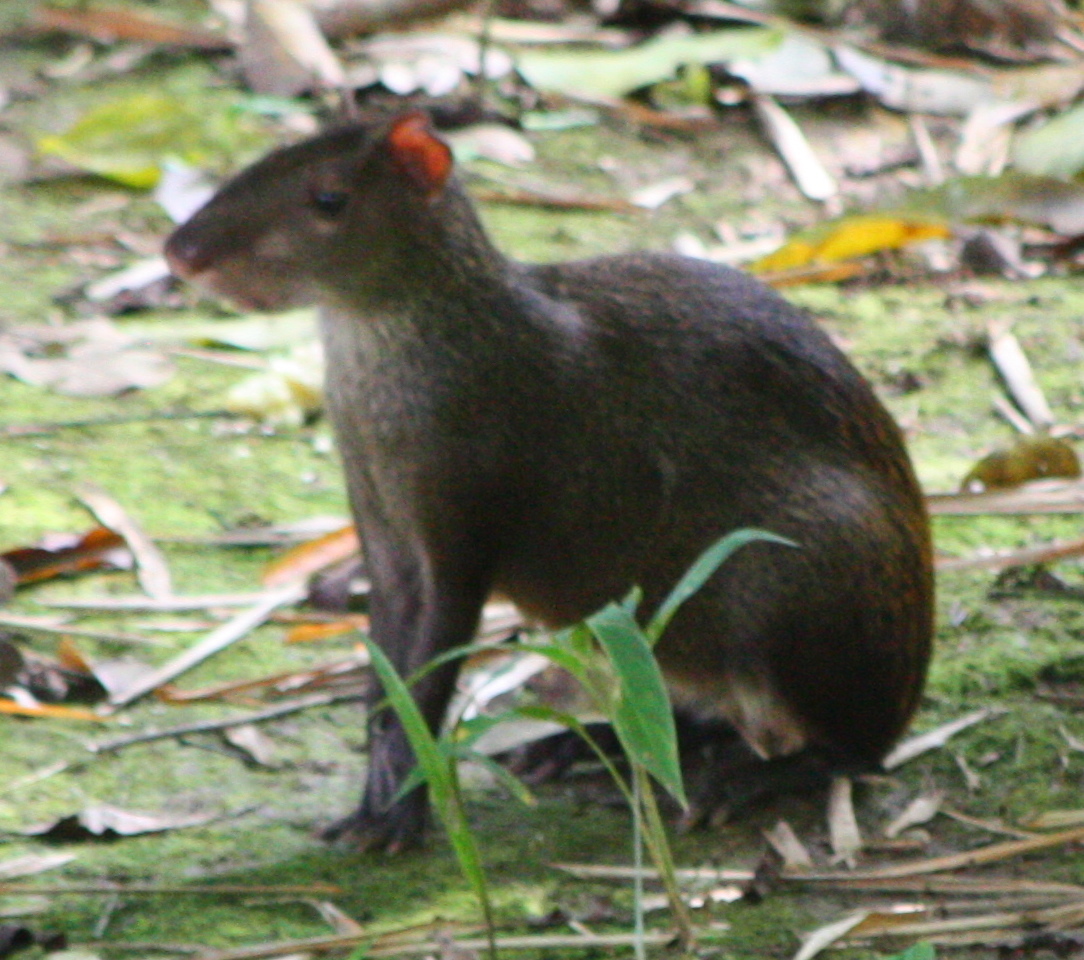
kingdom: Animalia
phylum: Chordata
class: Mammalia
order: Rodentia
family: Dasyproctidae
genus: Dasyprocta
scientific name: Dasyprocta punctata
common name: Central american agouti
